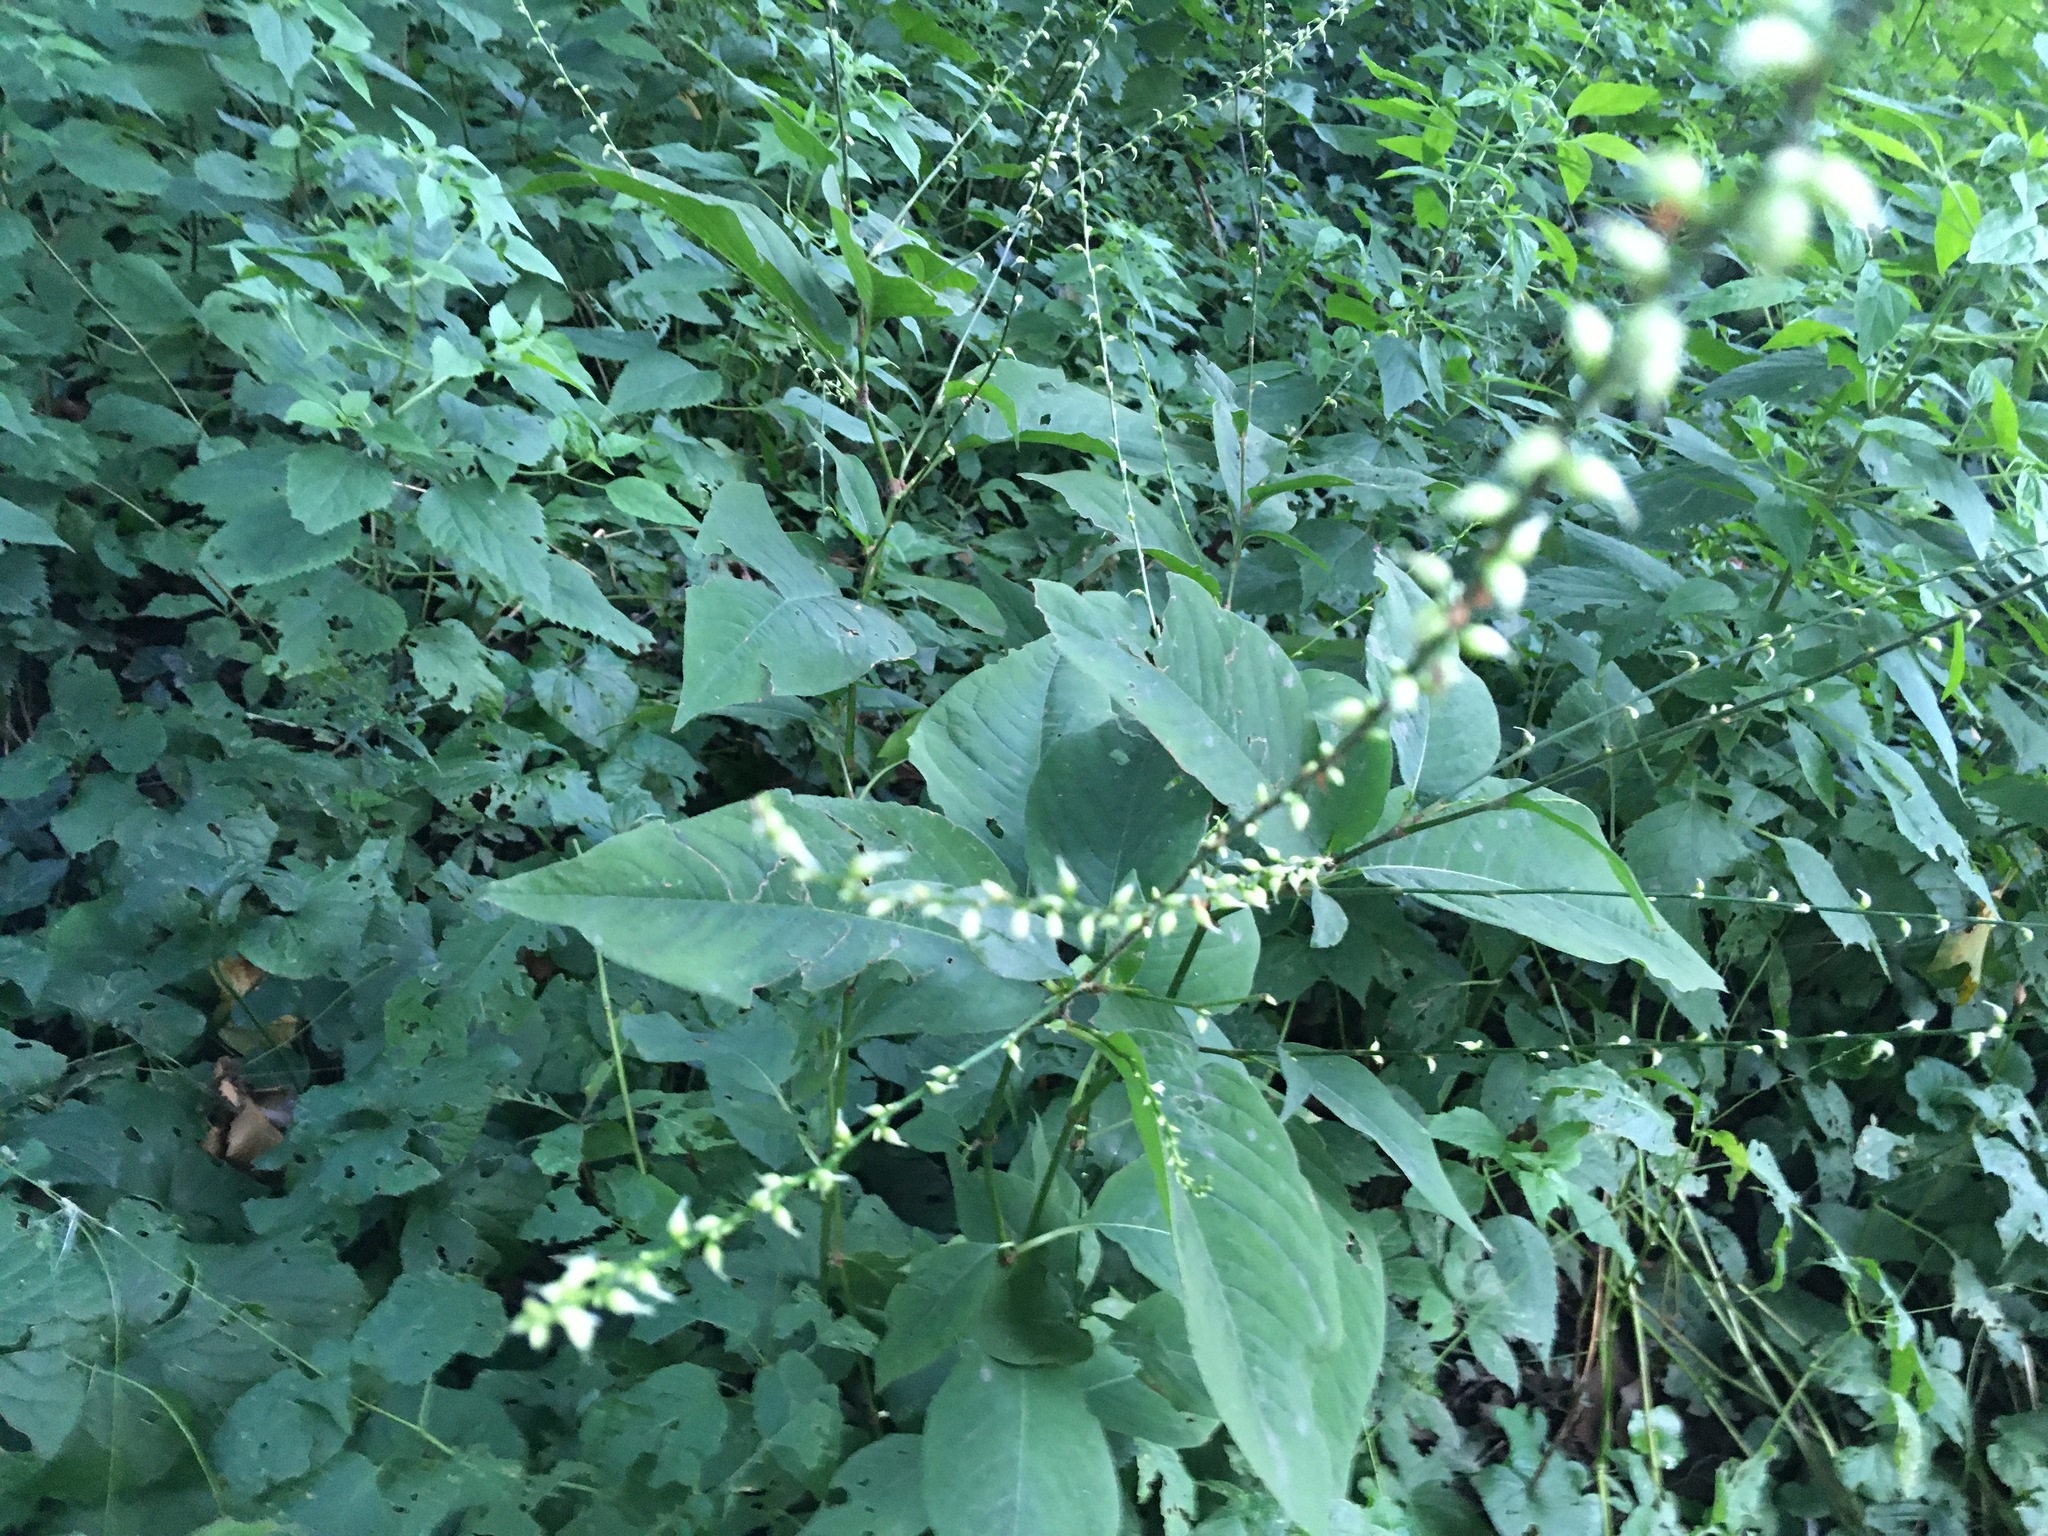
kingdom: Plantae
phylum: Tracheophyta
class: Magnoliopsida
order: Caryophyllales
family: Polygonaceae
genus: Persicaria
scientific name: Persicaria virginiana
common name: Jumpseed
